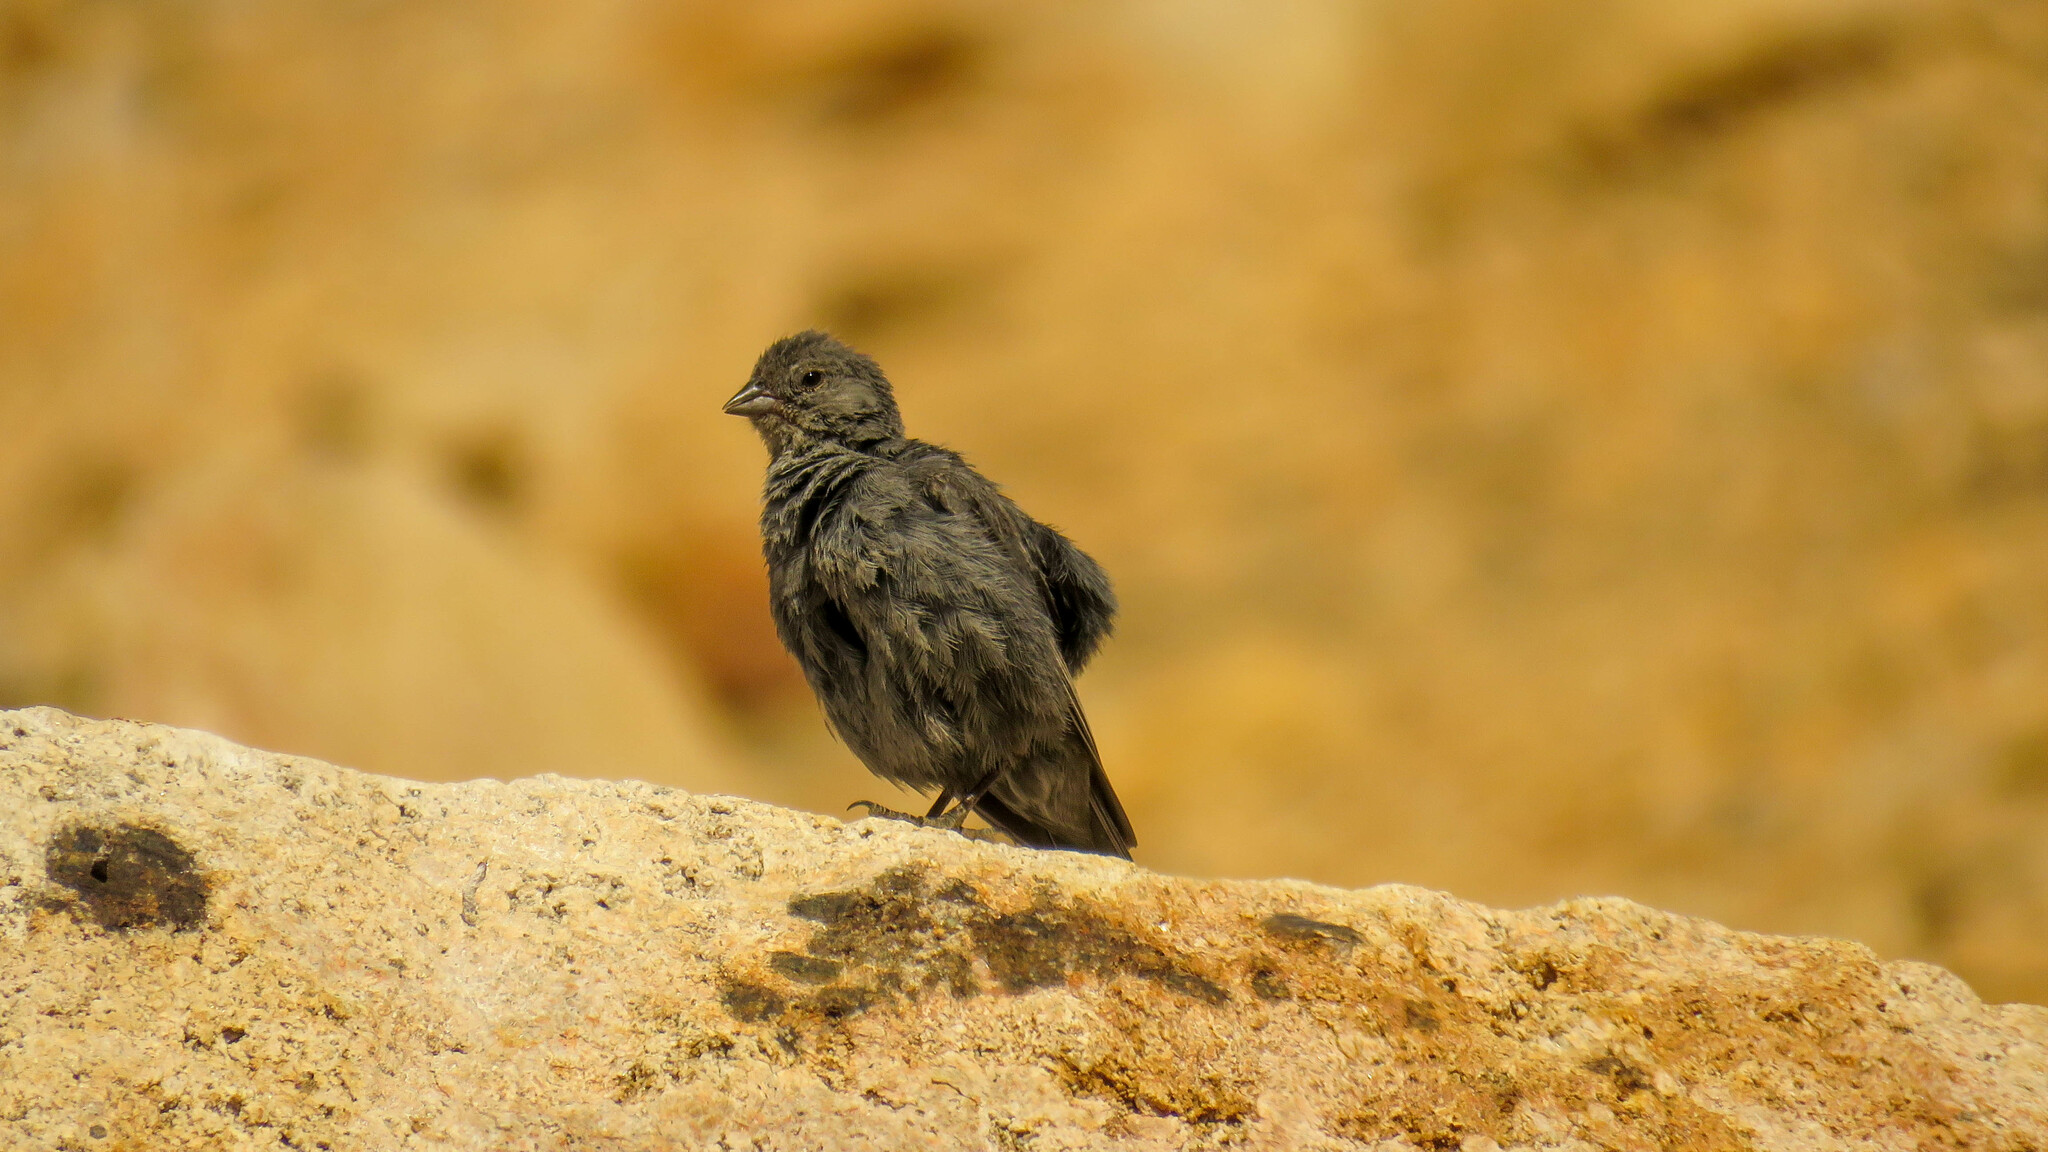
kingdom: Animalia
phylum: Chordata
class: Aves
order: Passeriformes
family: Thraupidae
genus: Geospizopsis
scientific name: Geospizopsis unicolor
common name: Plumbeous sierra-finch
